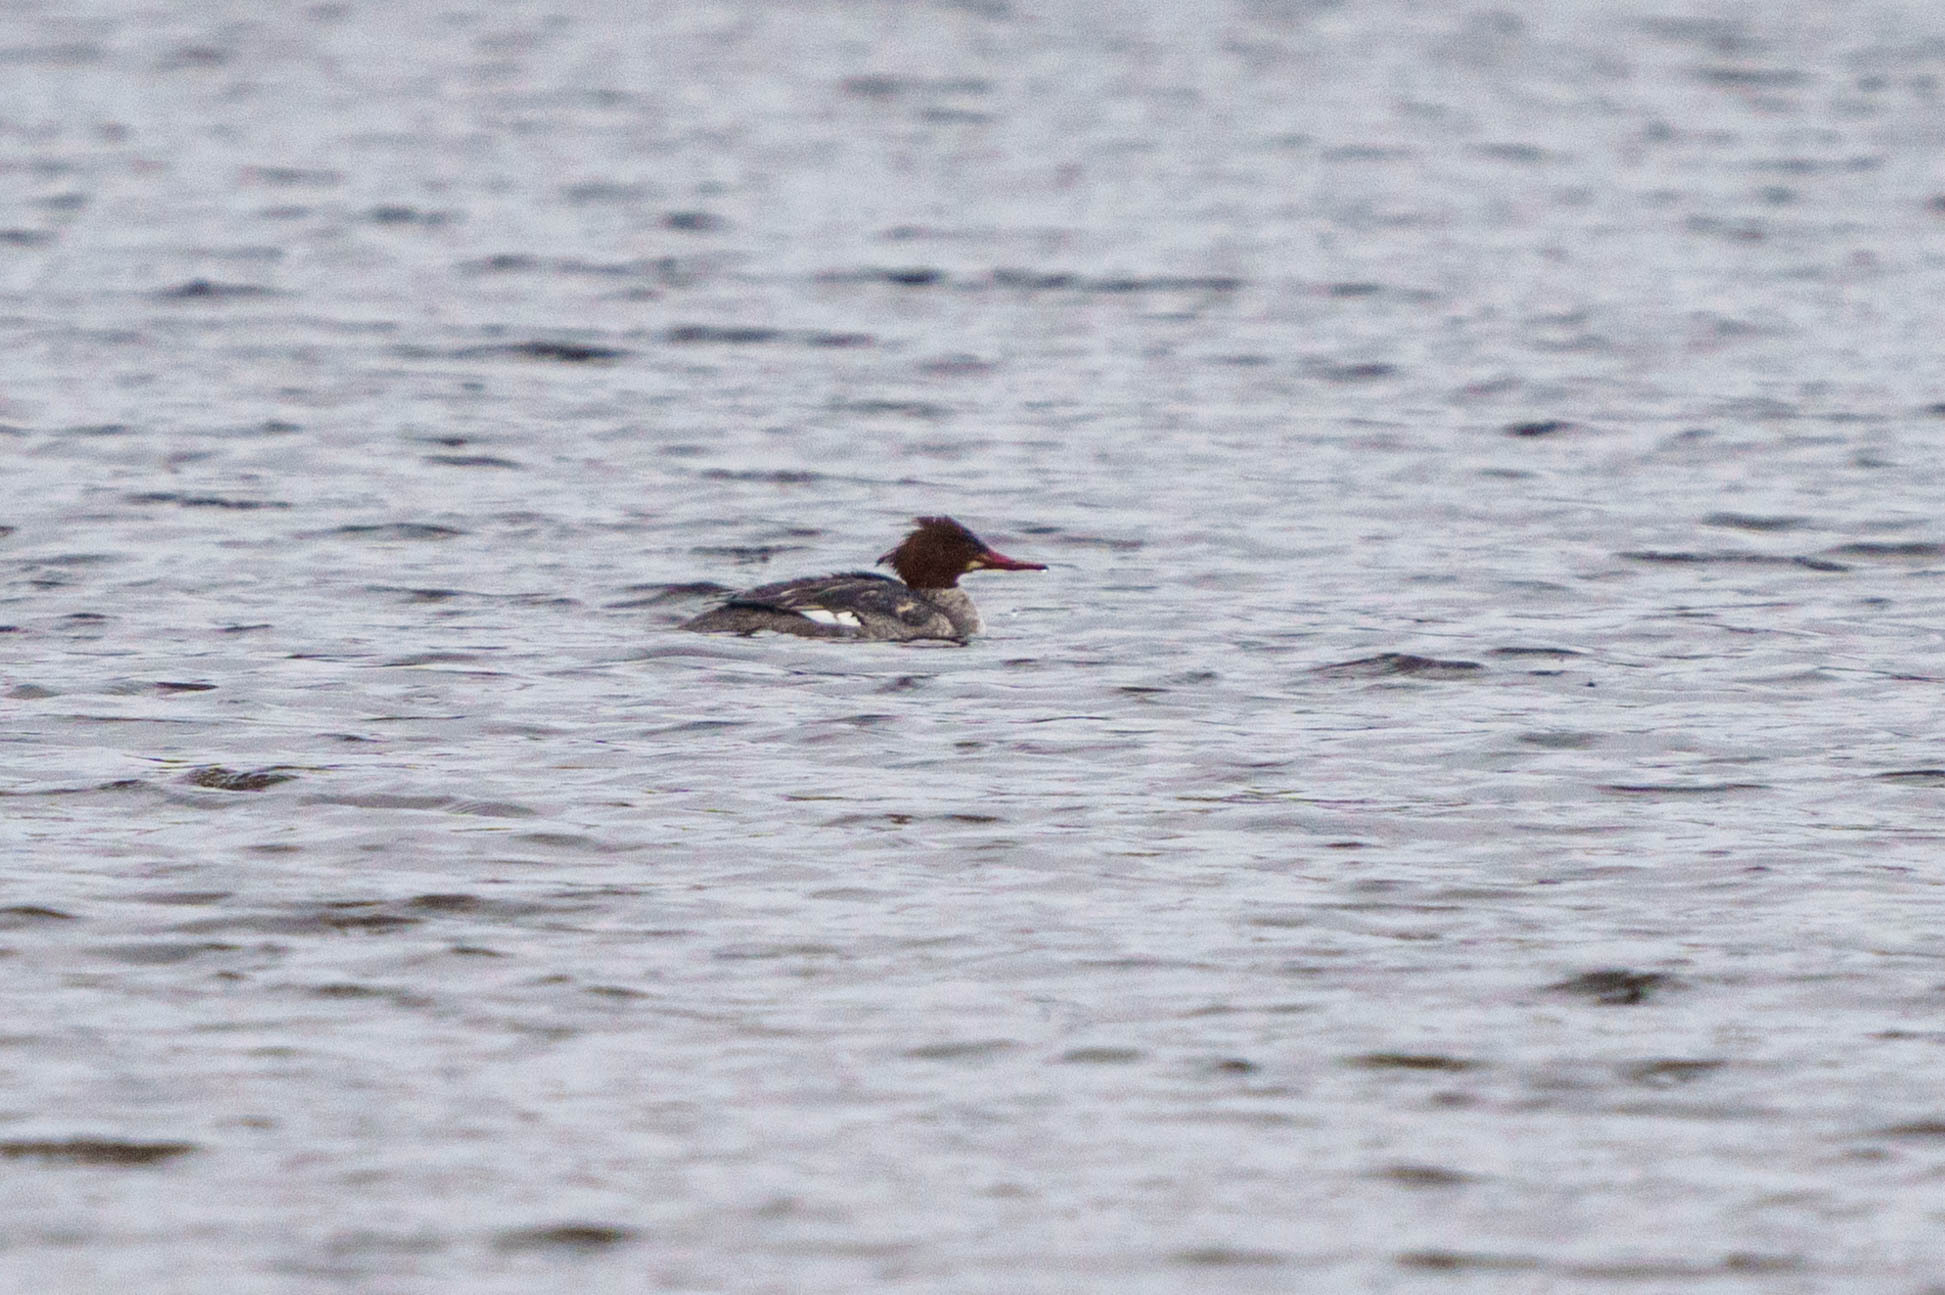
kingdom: Animalia
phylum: Chordata
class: Aves
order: Anseriformes
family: Anatidae
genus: Mergus
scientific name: Mergus merganser
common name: Common merganser
